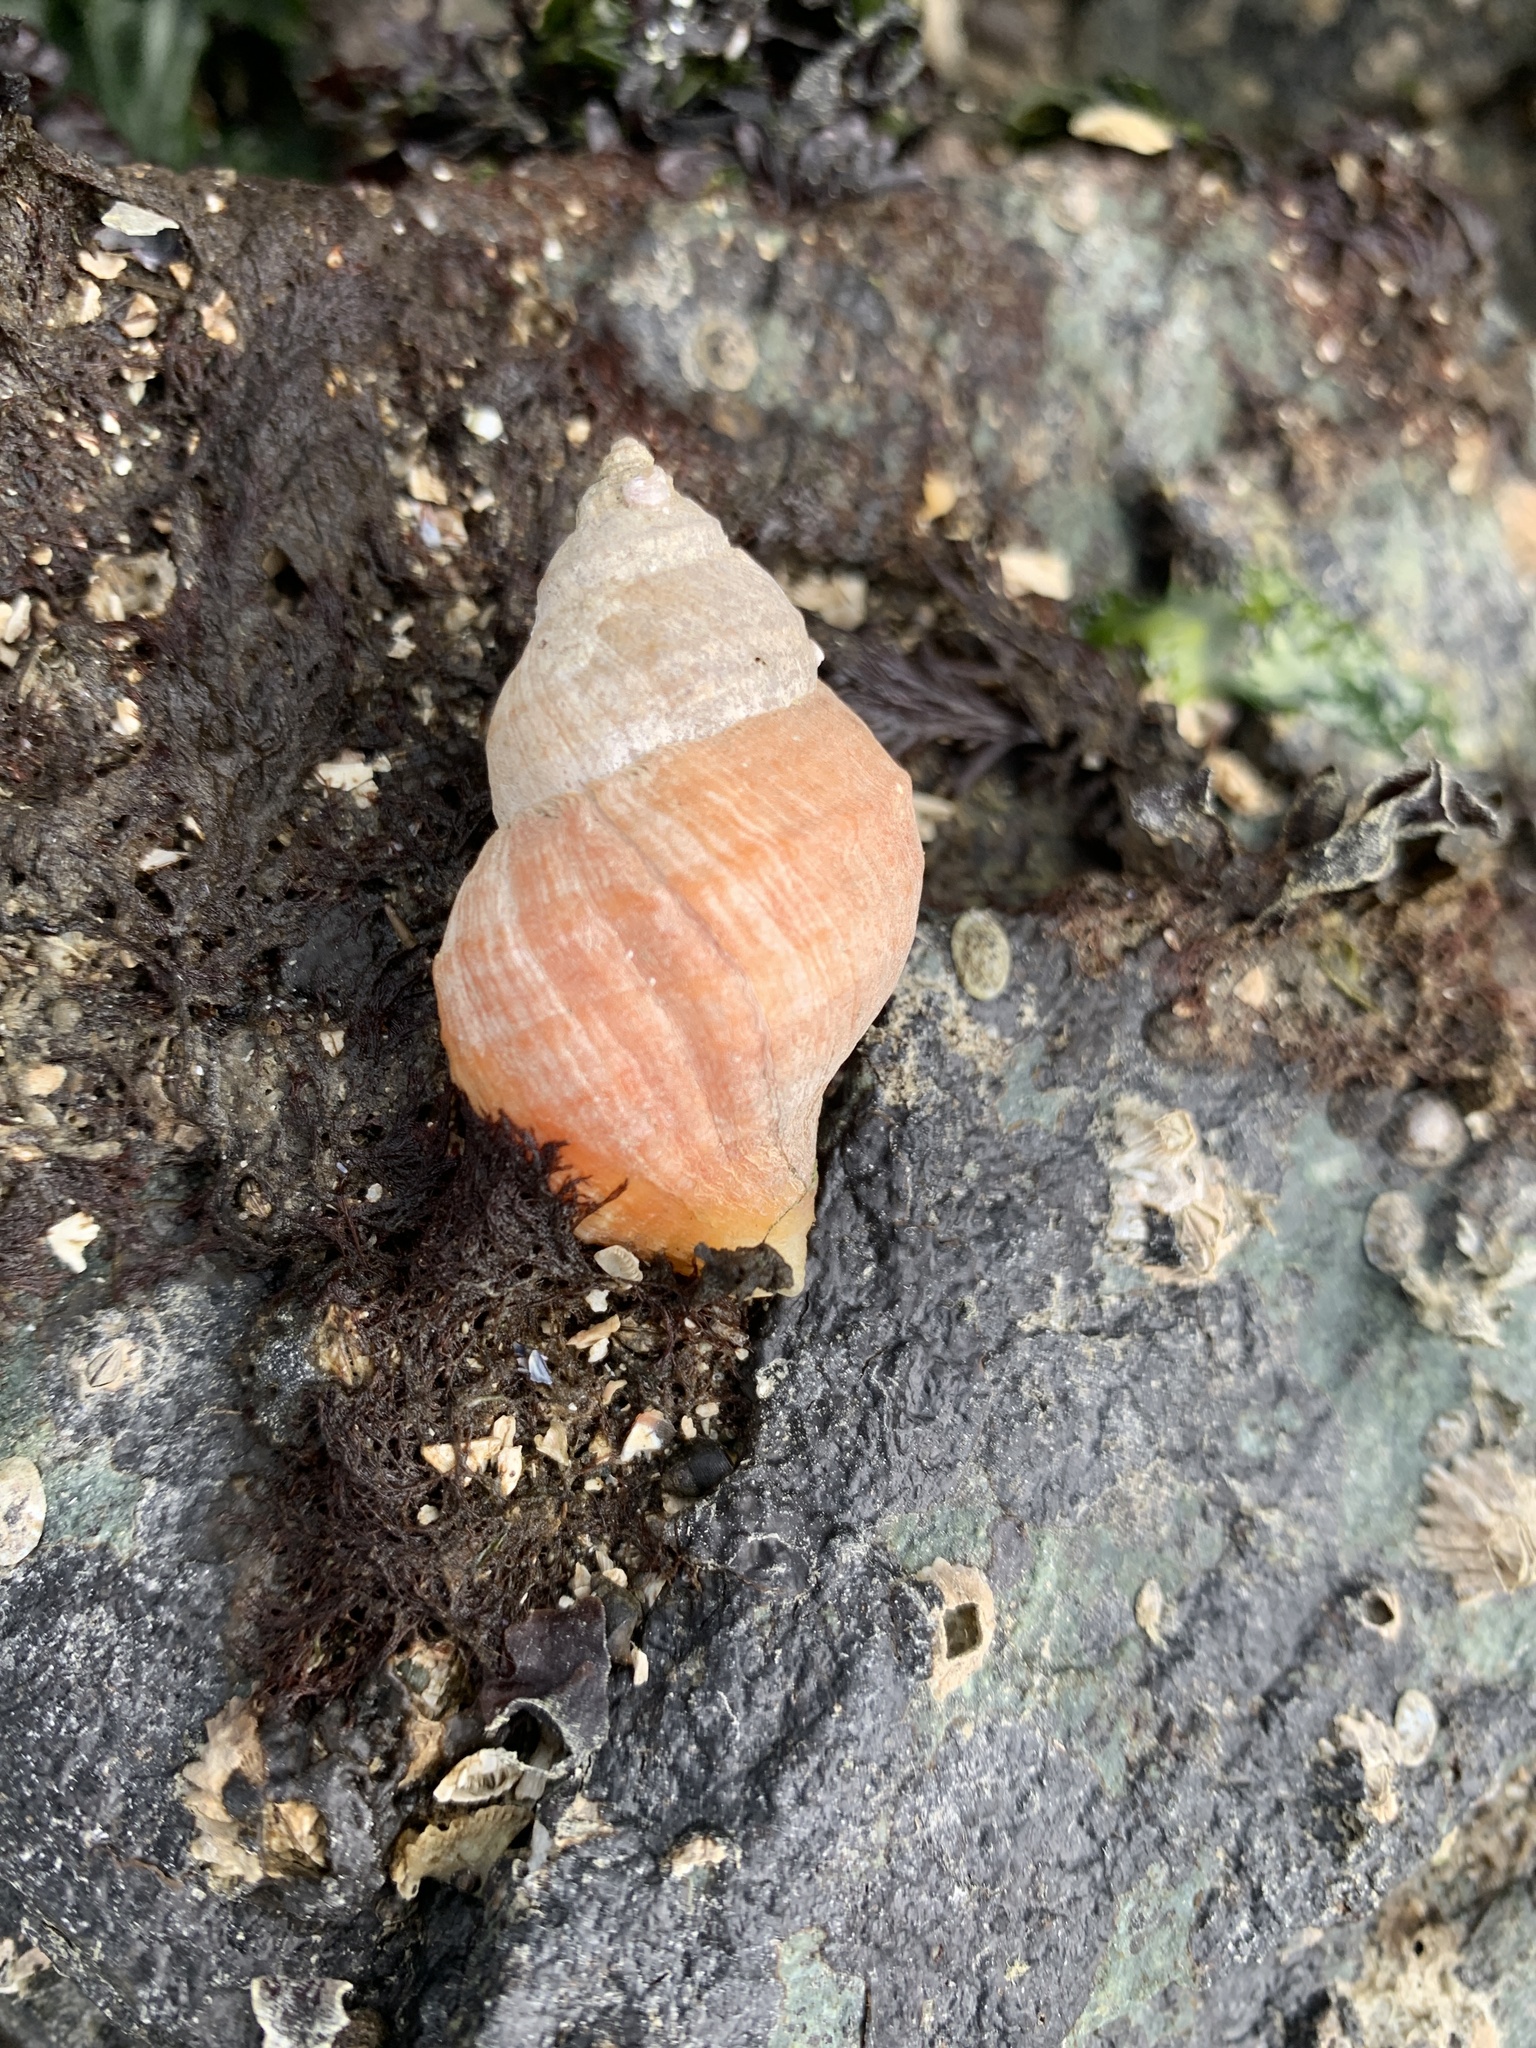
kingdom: Animalia
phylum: Mollusca
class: Gastropoda
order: Neogastropoda
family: Muricidae
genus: Nucella
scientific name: Nucella lamellosa
